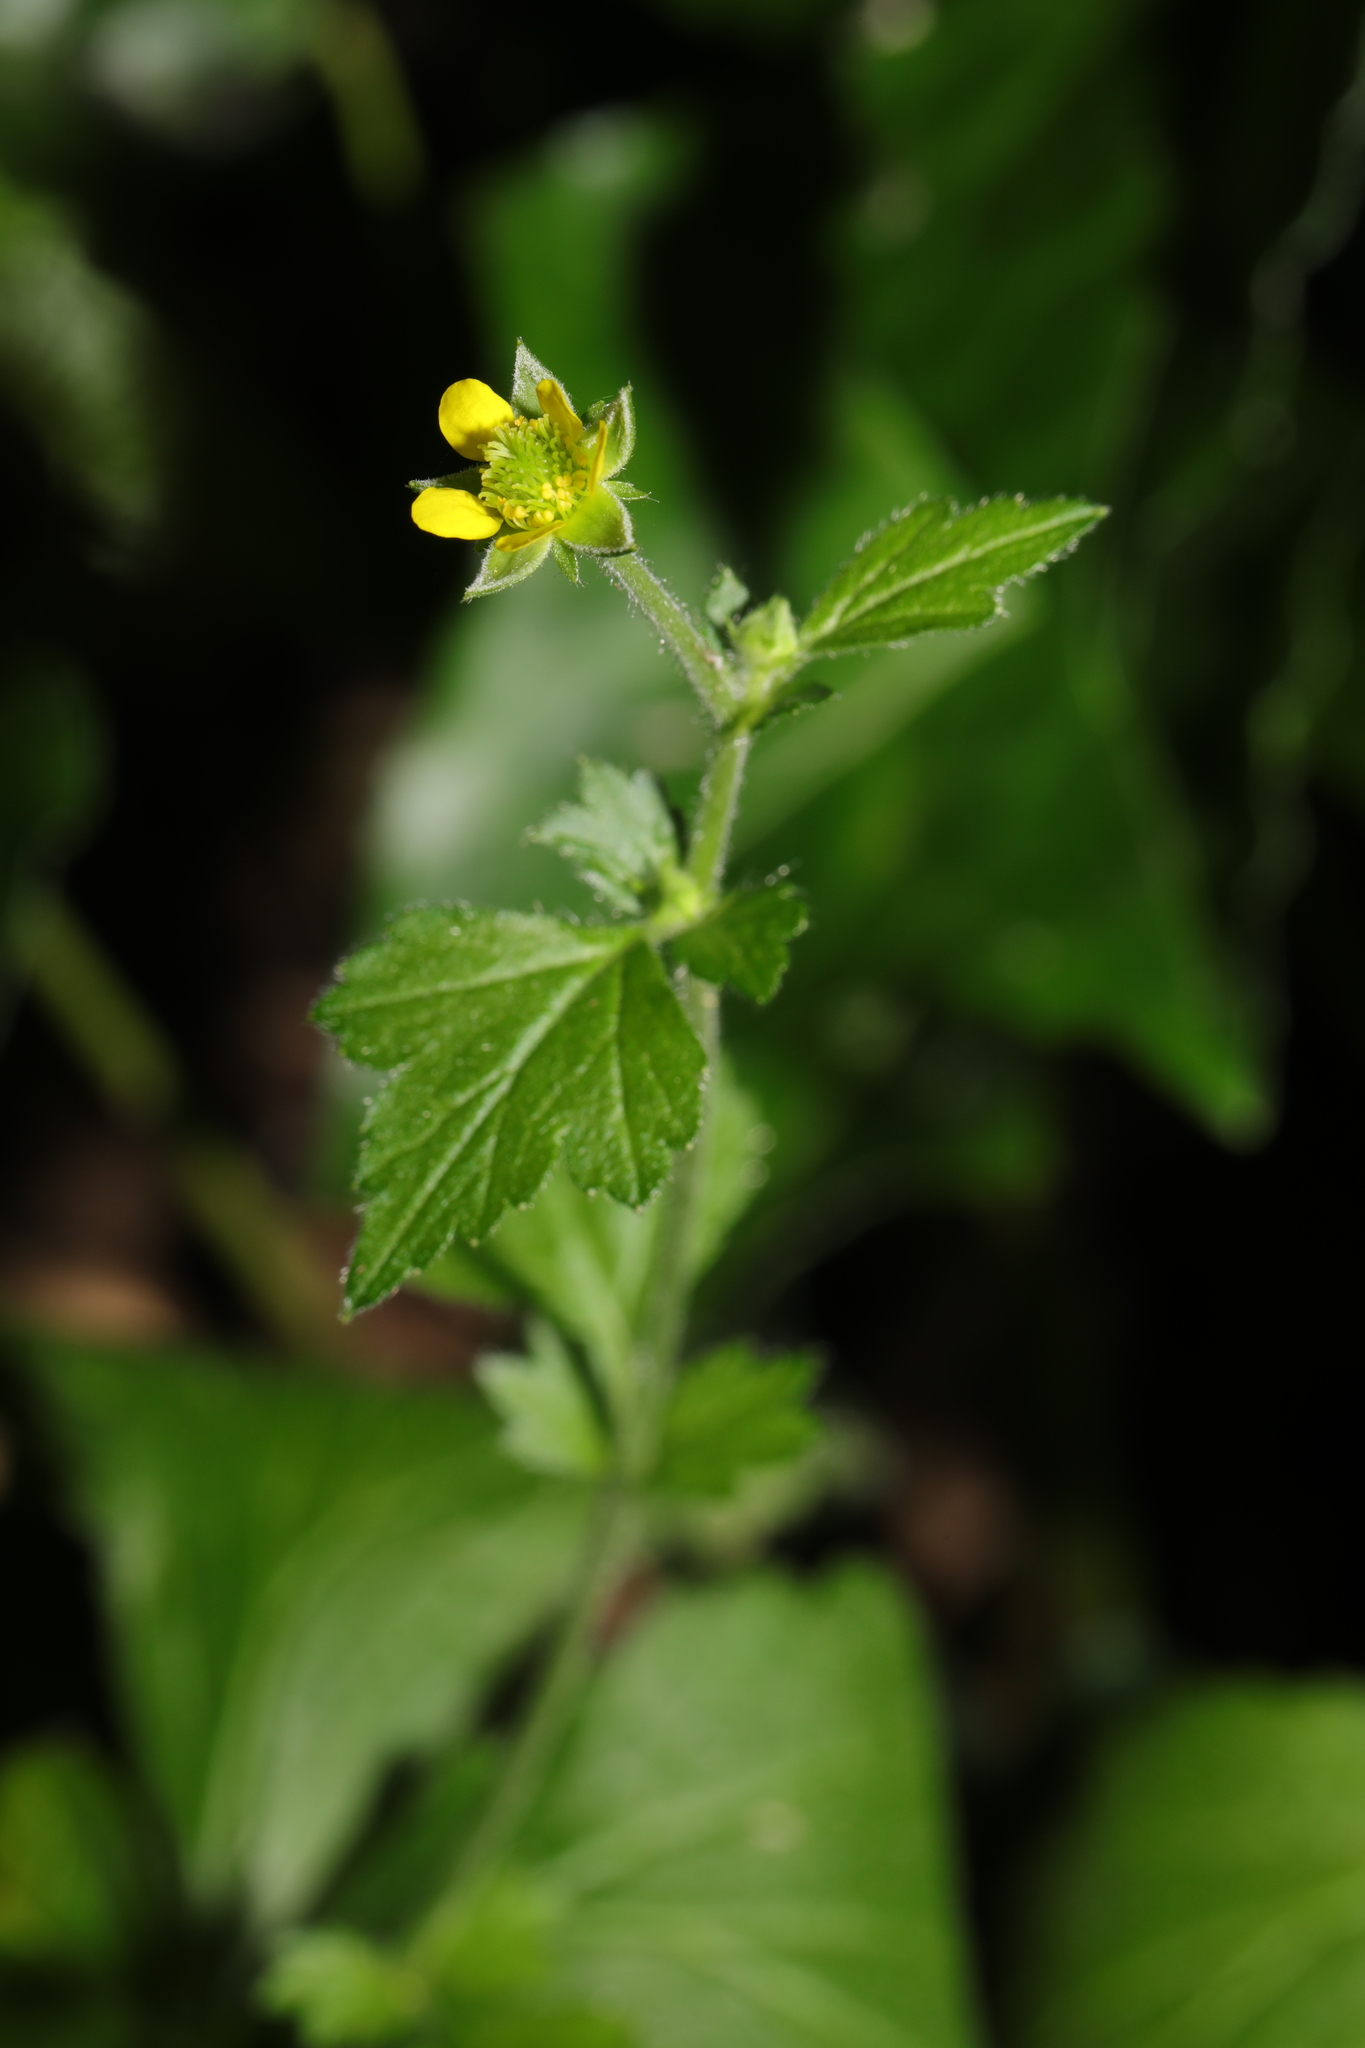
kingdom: Plantae
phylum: Tracheophyta
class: Magnoliopsida
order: Rosales
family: Rosaceae
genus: Geum
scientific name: Geum urbanum
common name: Wood avens
